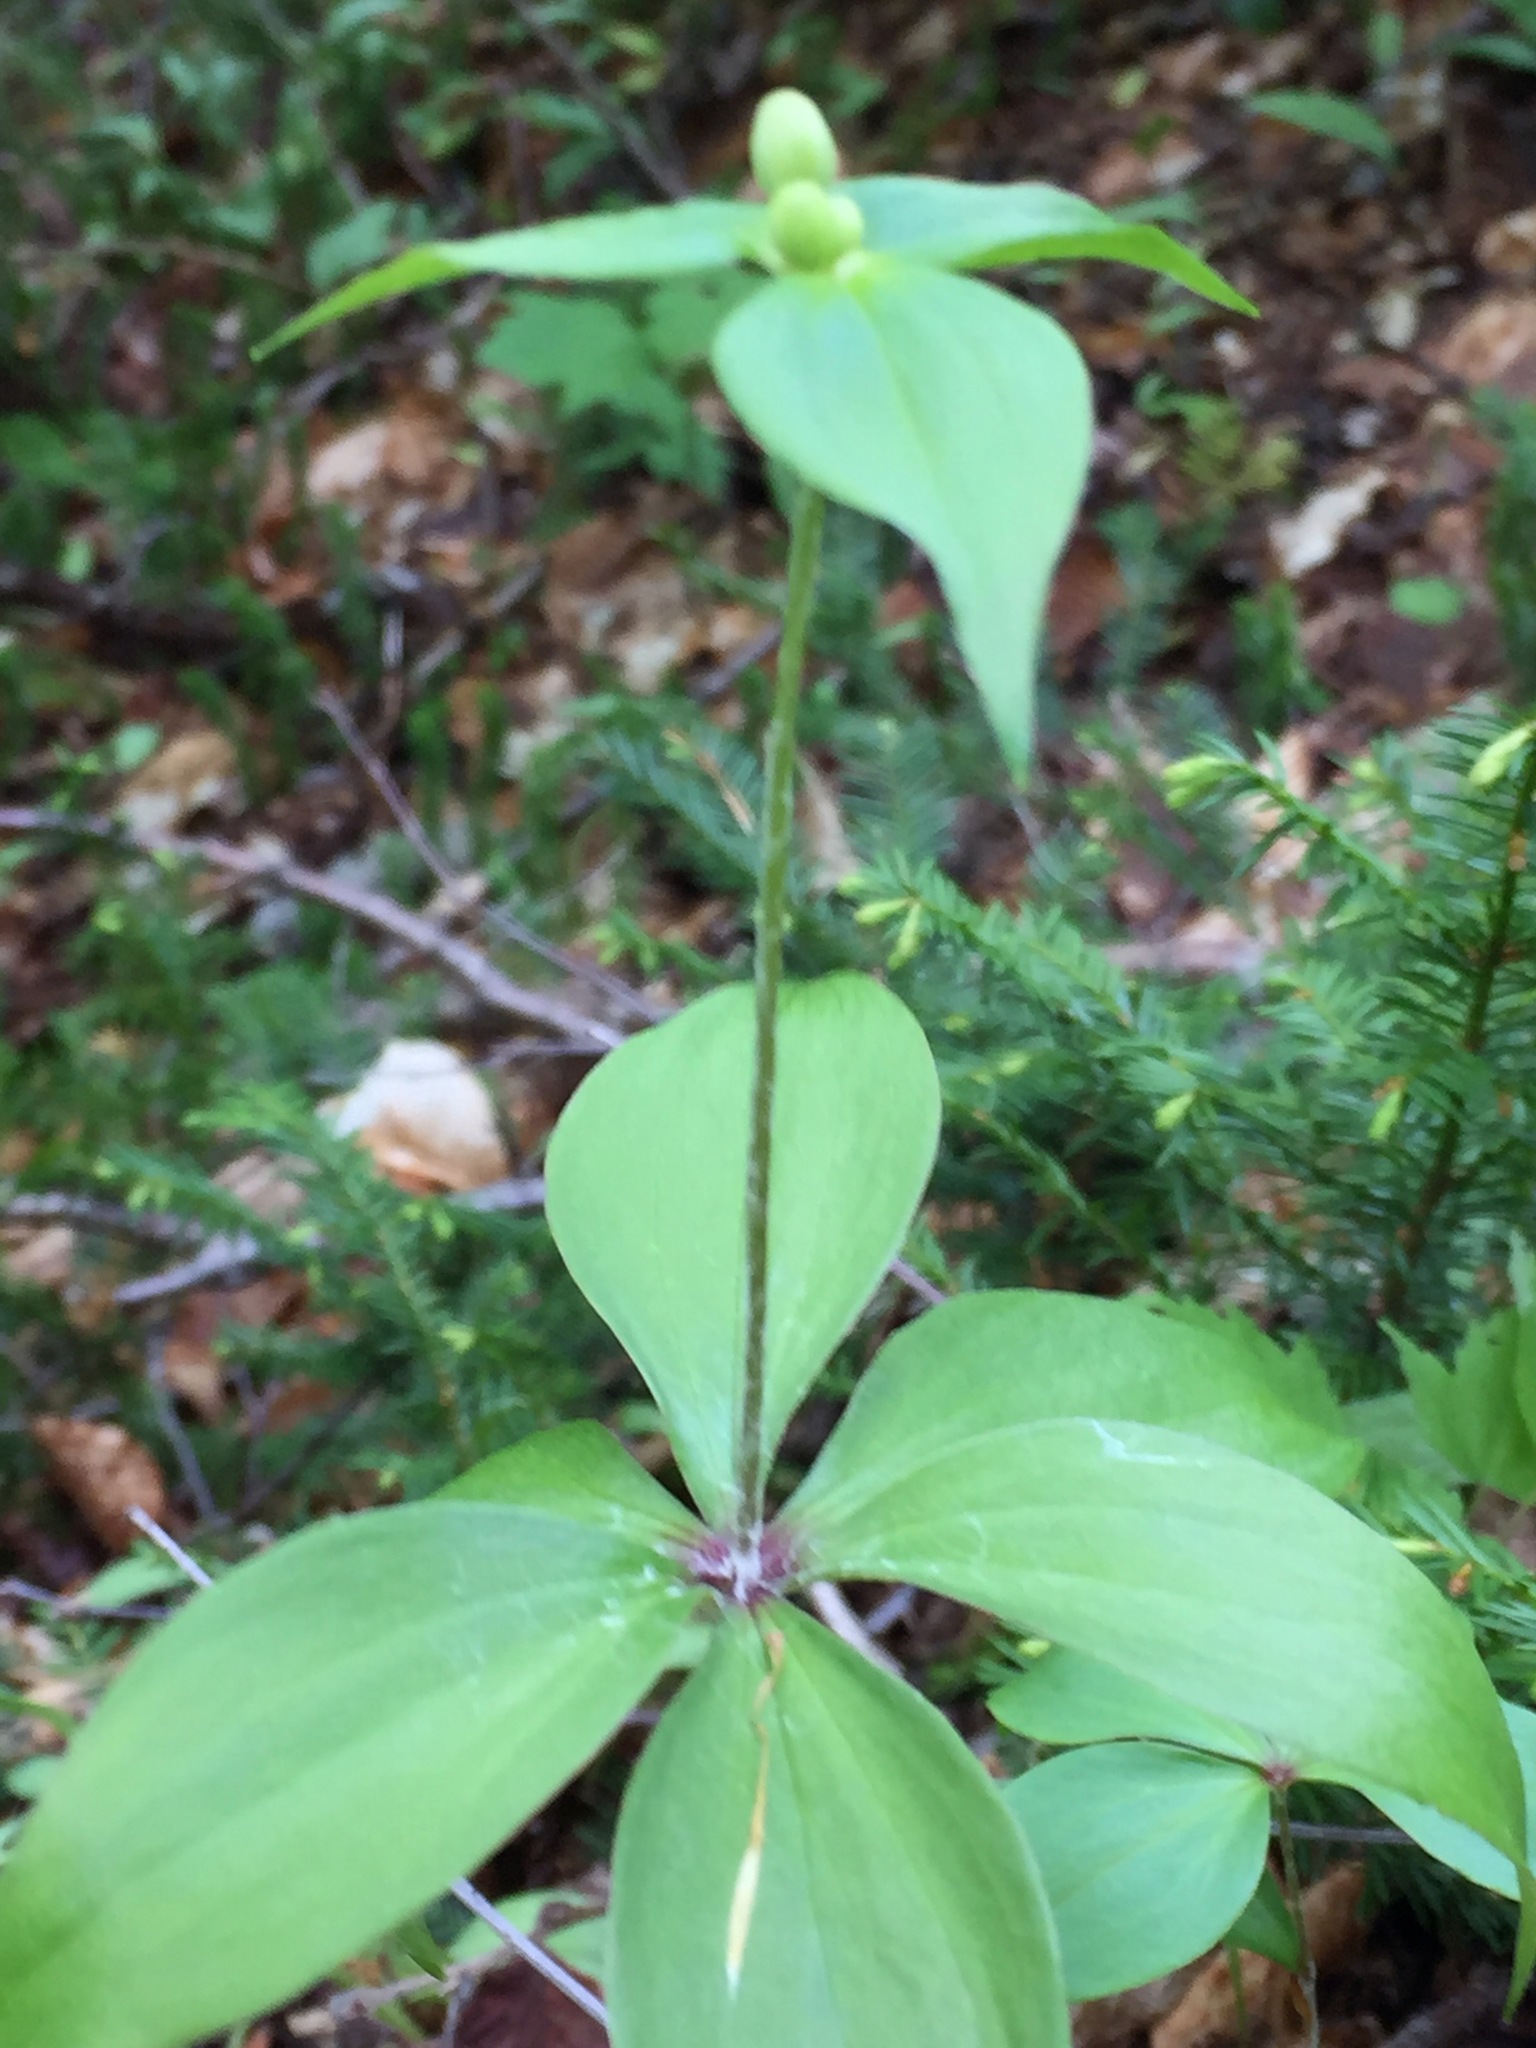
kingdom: Plantae
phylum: Tracheophyta
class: Liliopsida
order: Liliales
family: Liliaceae
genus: Medeola
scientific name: Medeola virginiana
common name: Indian cucumber-root
